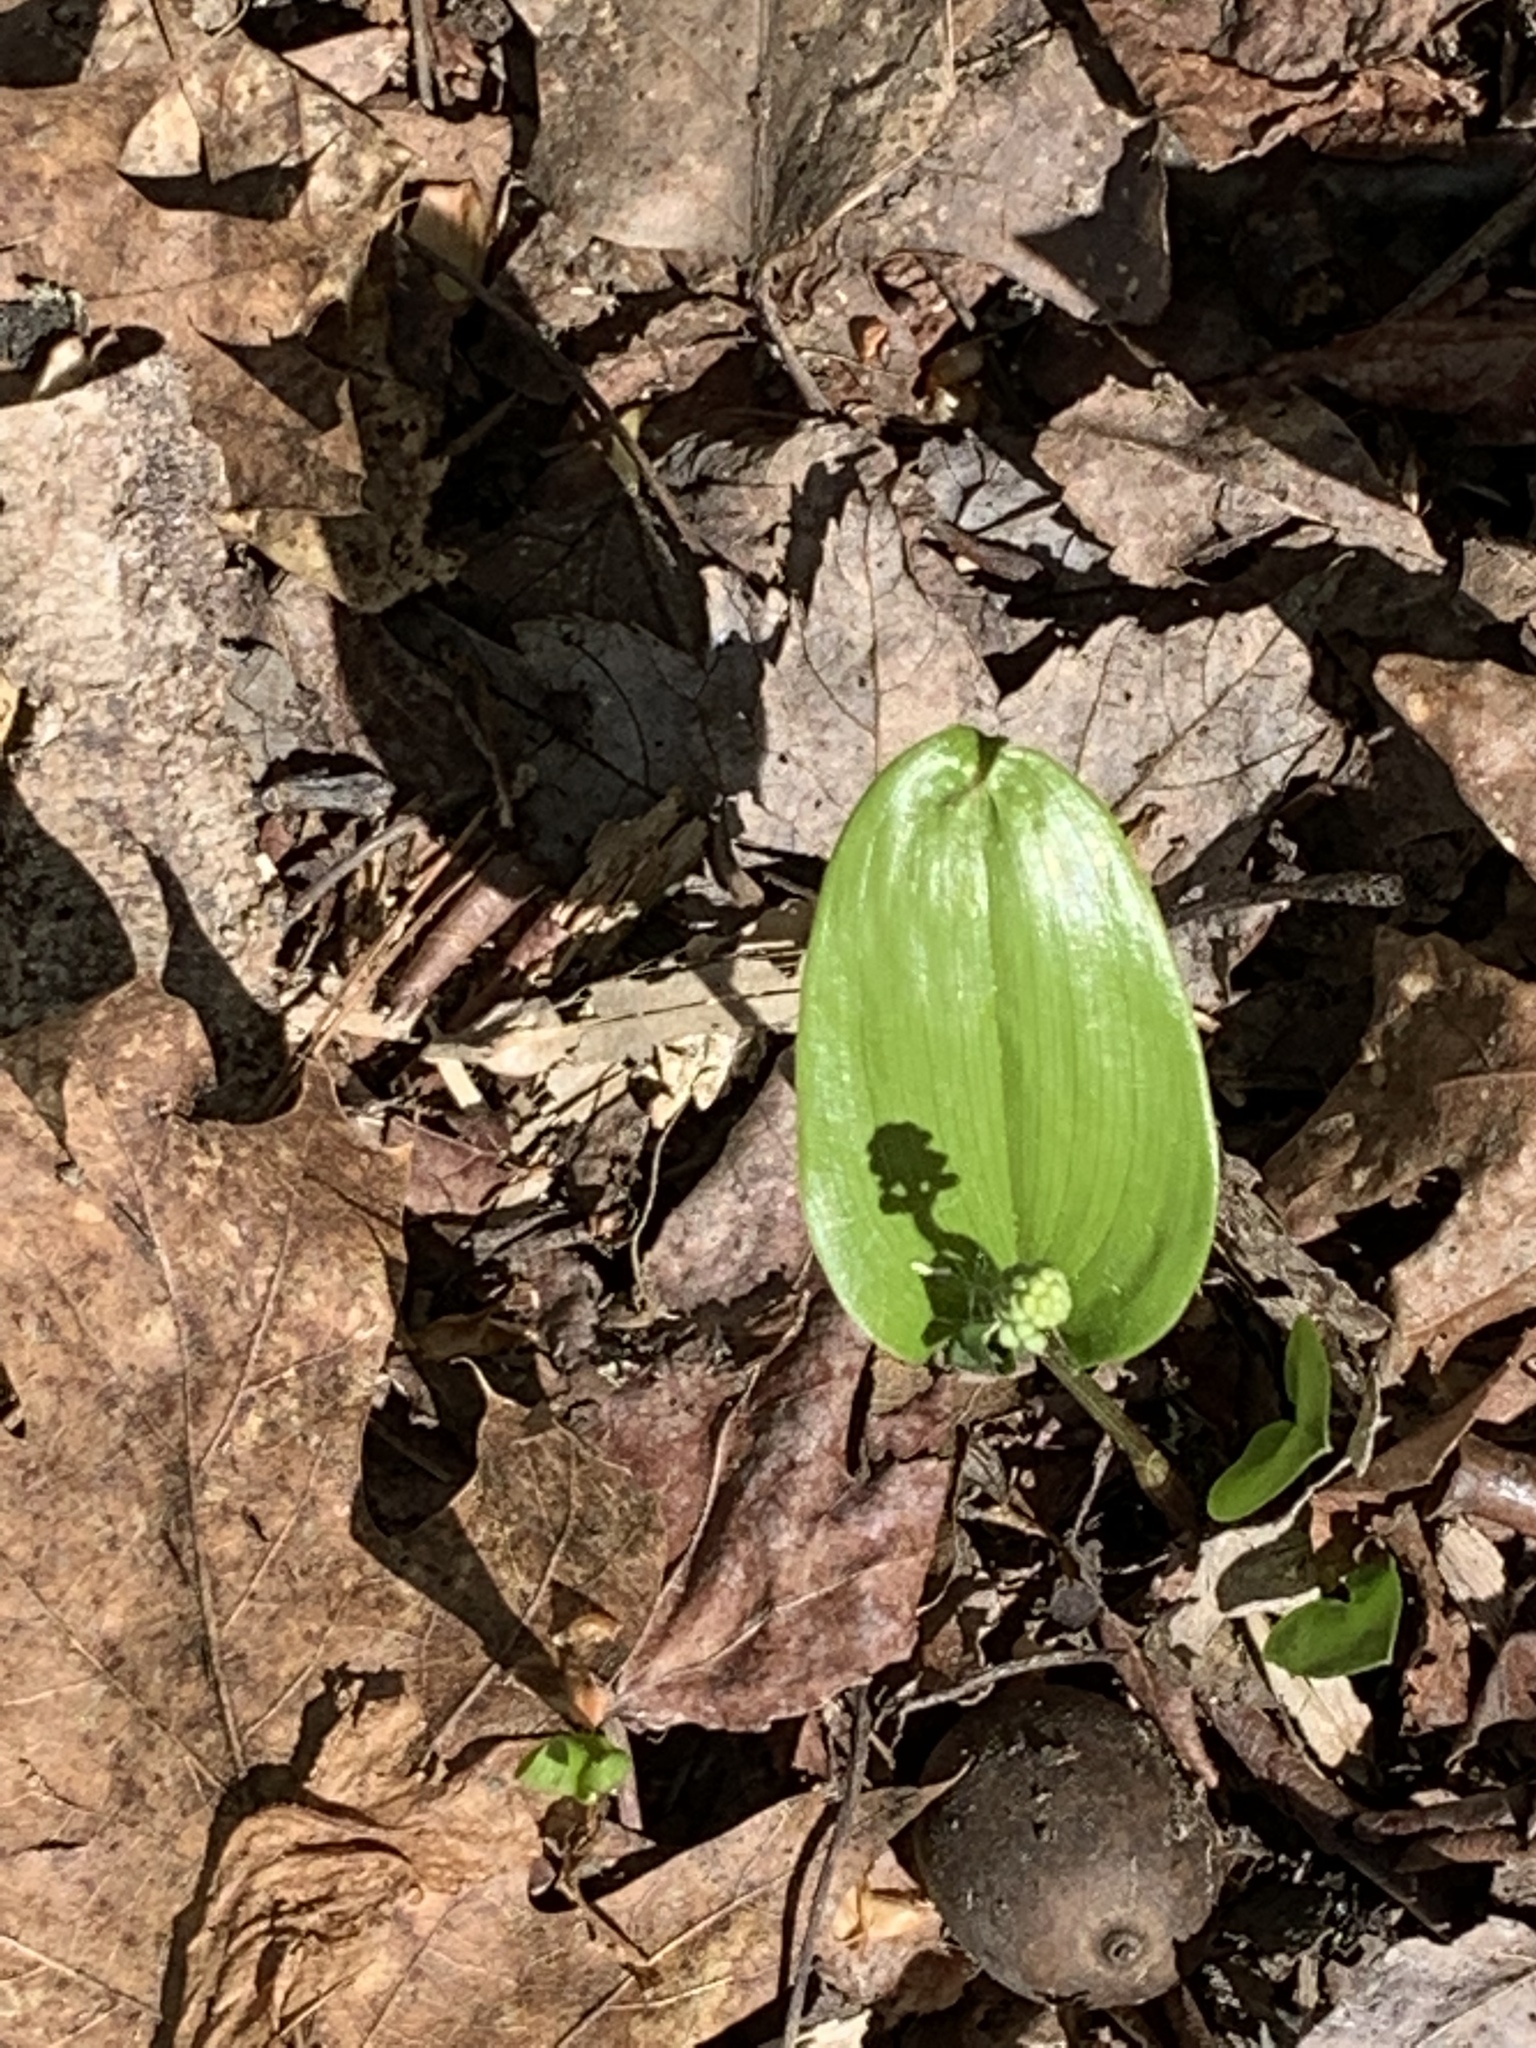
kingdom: Plantae
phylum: Tracheophyta
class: Liliopsida
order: Asparagales
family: Asparagaceae
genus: Maianthemum
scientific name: Maianthemum canadense
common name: False lily-of-the-valley
